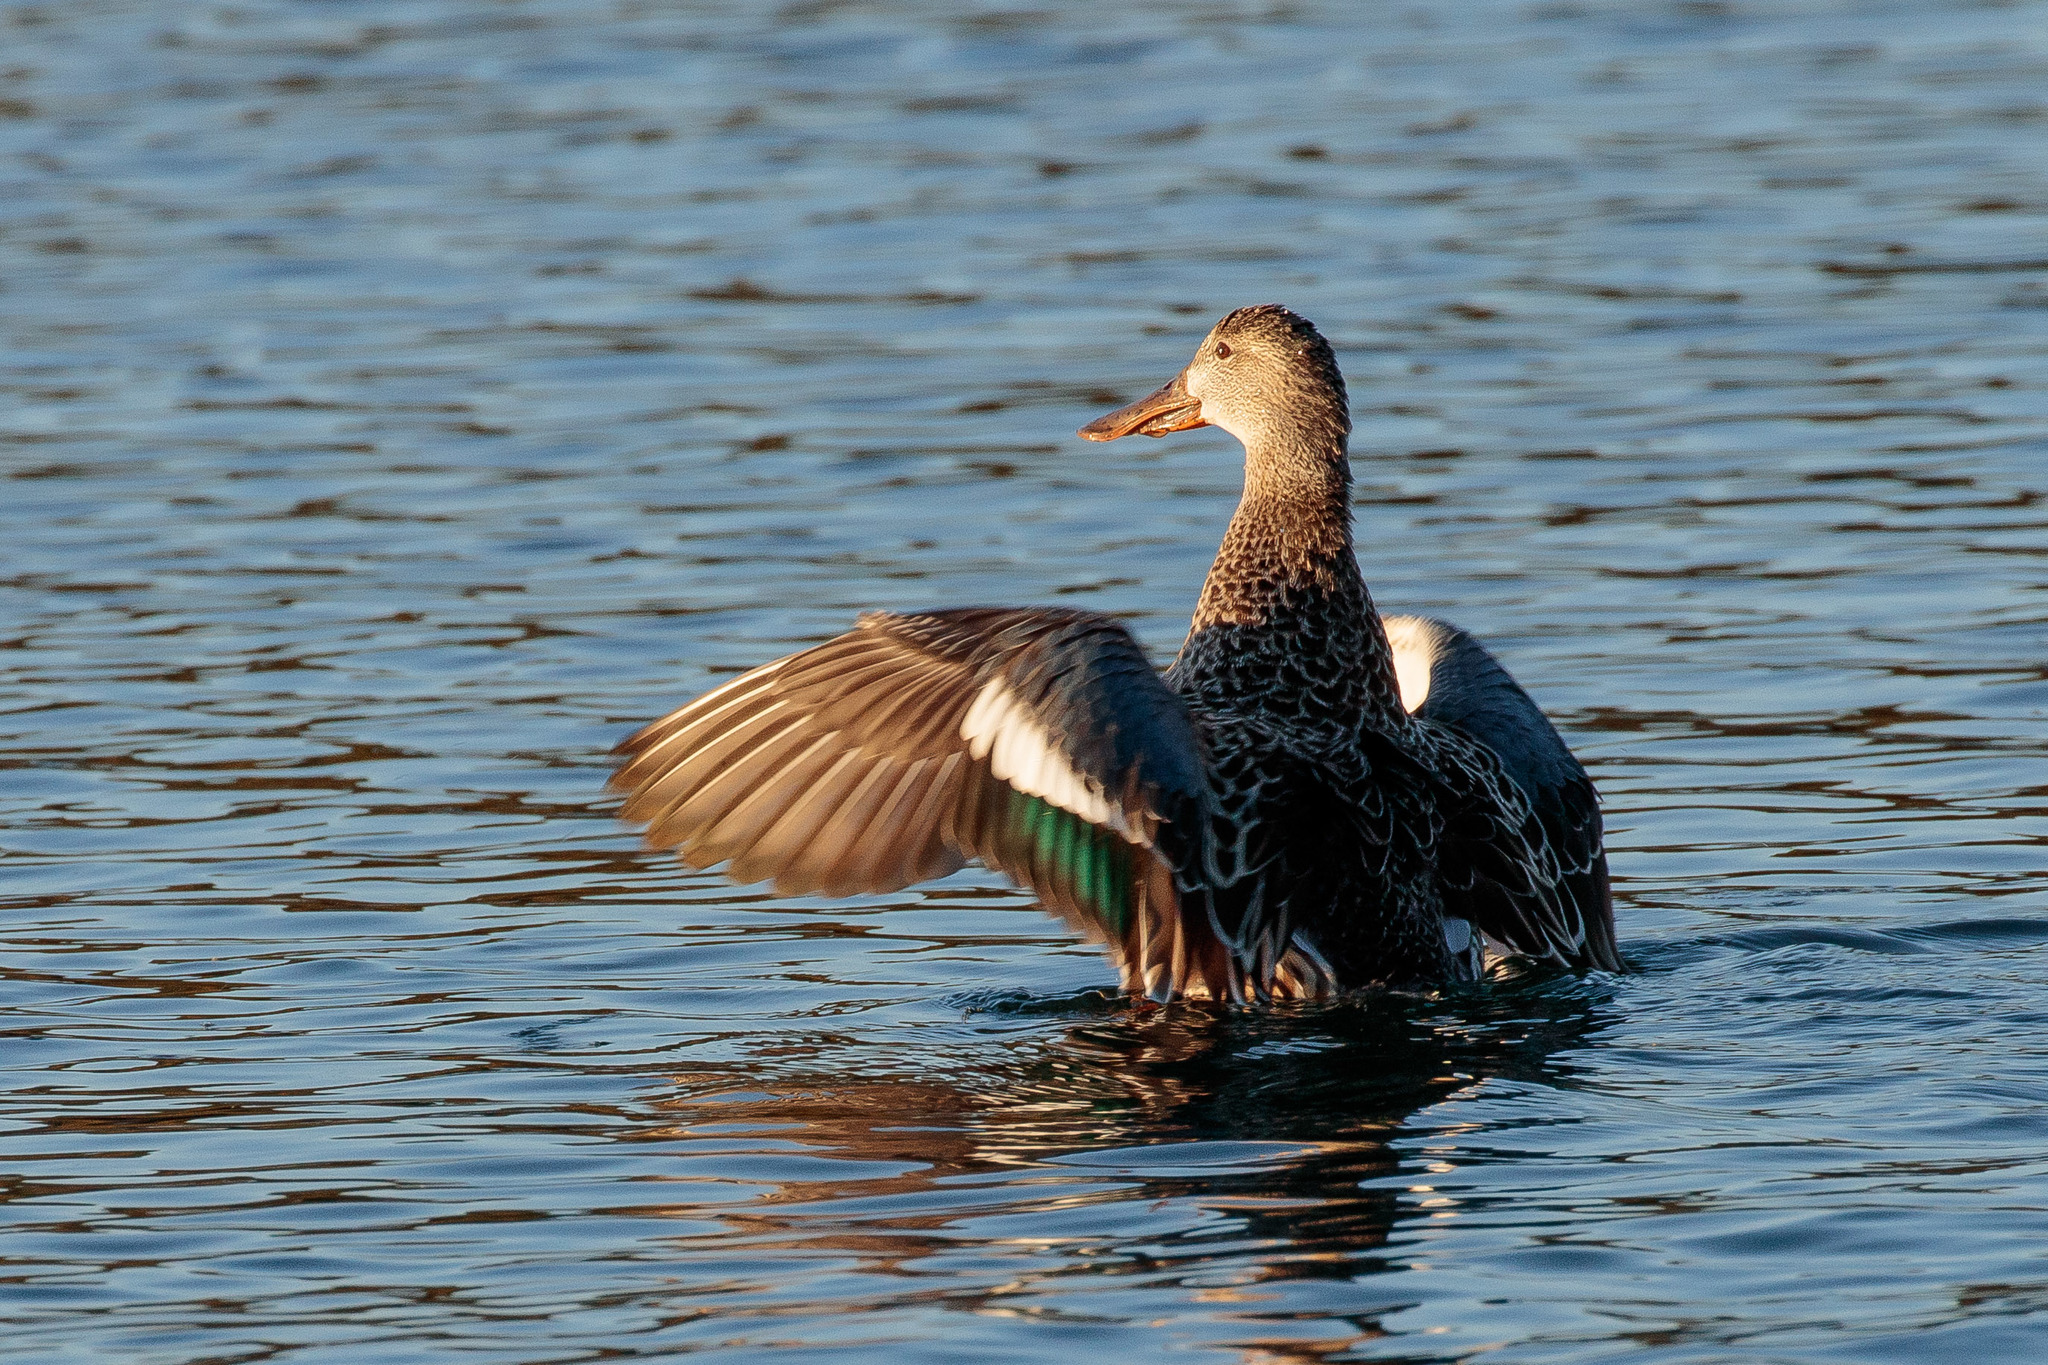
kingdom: Animalia
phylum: Chordata
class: Aves
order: Anseriformes
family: Anatidae
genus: Spatula
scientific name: Spatula clypeata
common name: Northern shoveler
